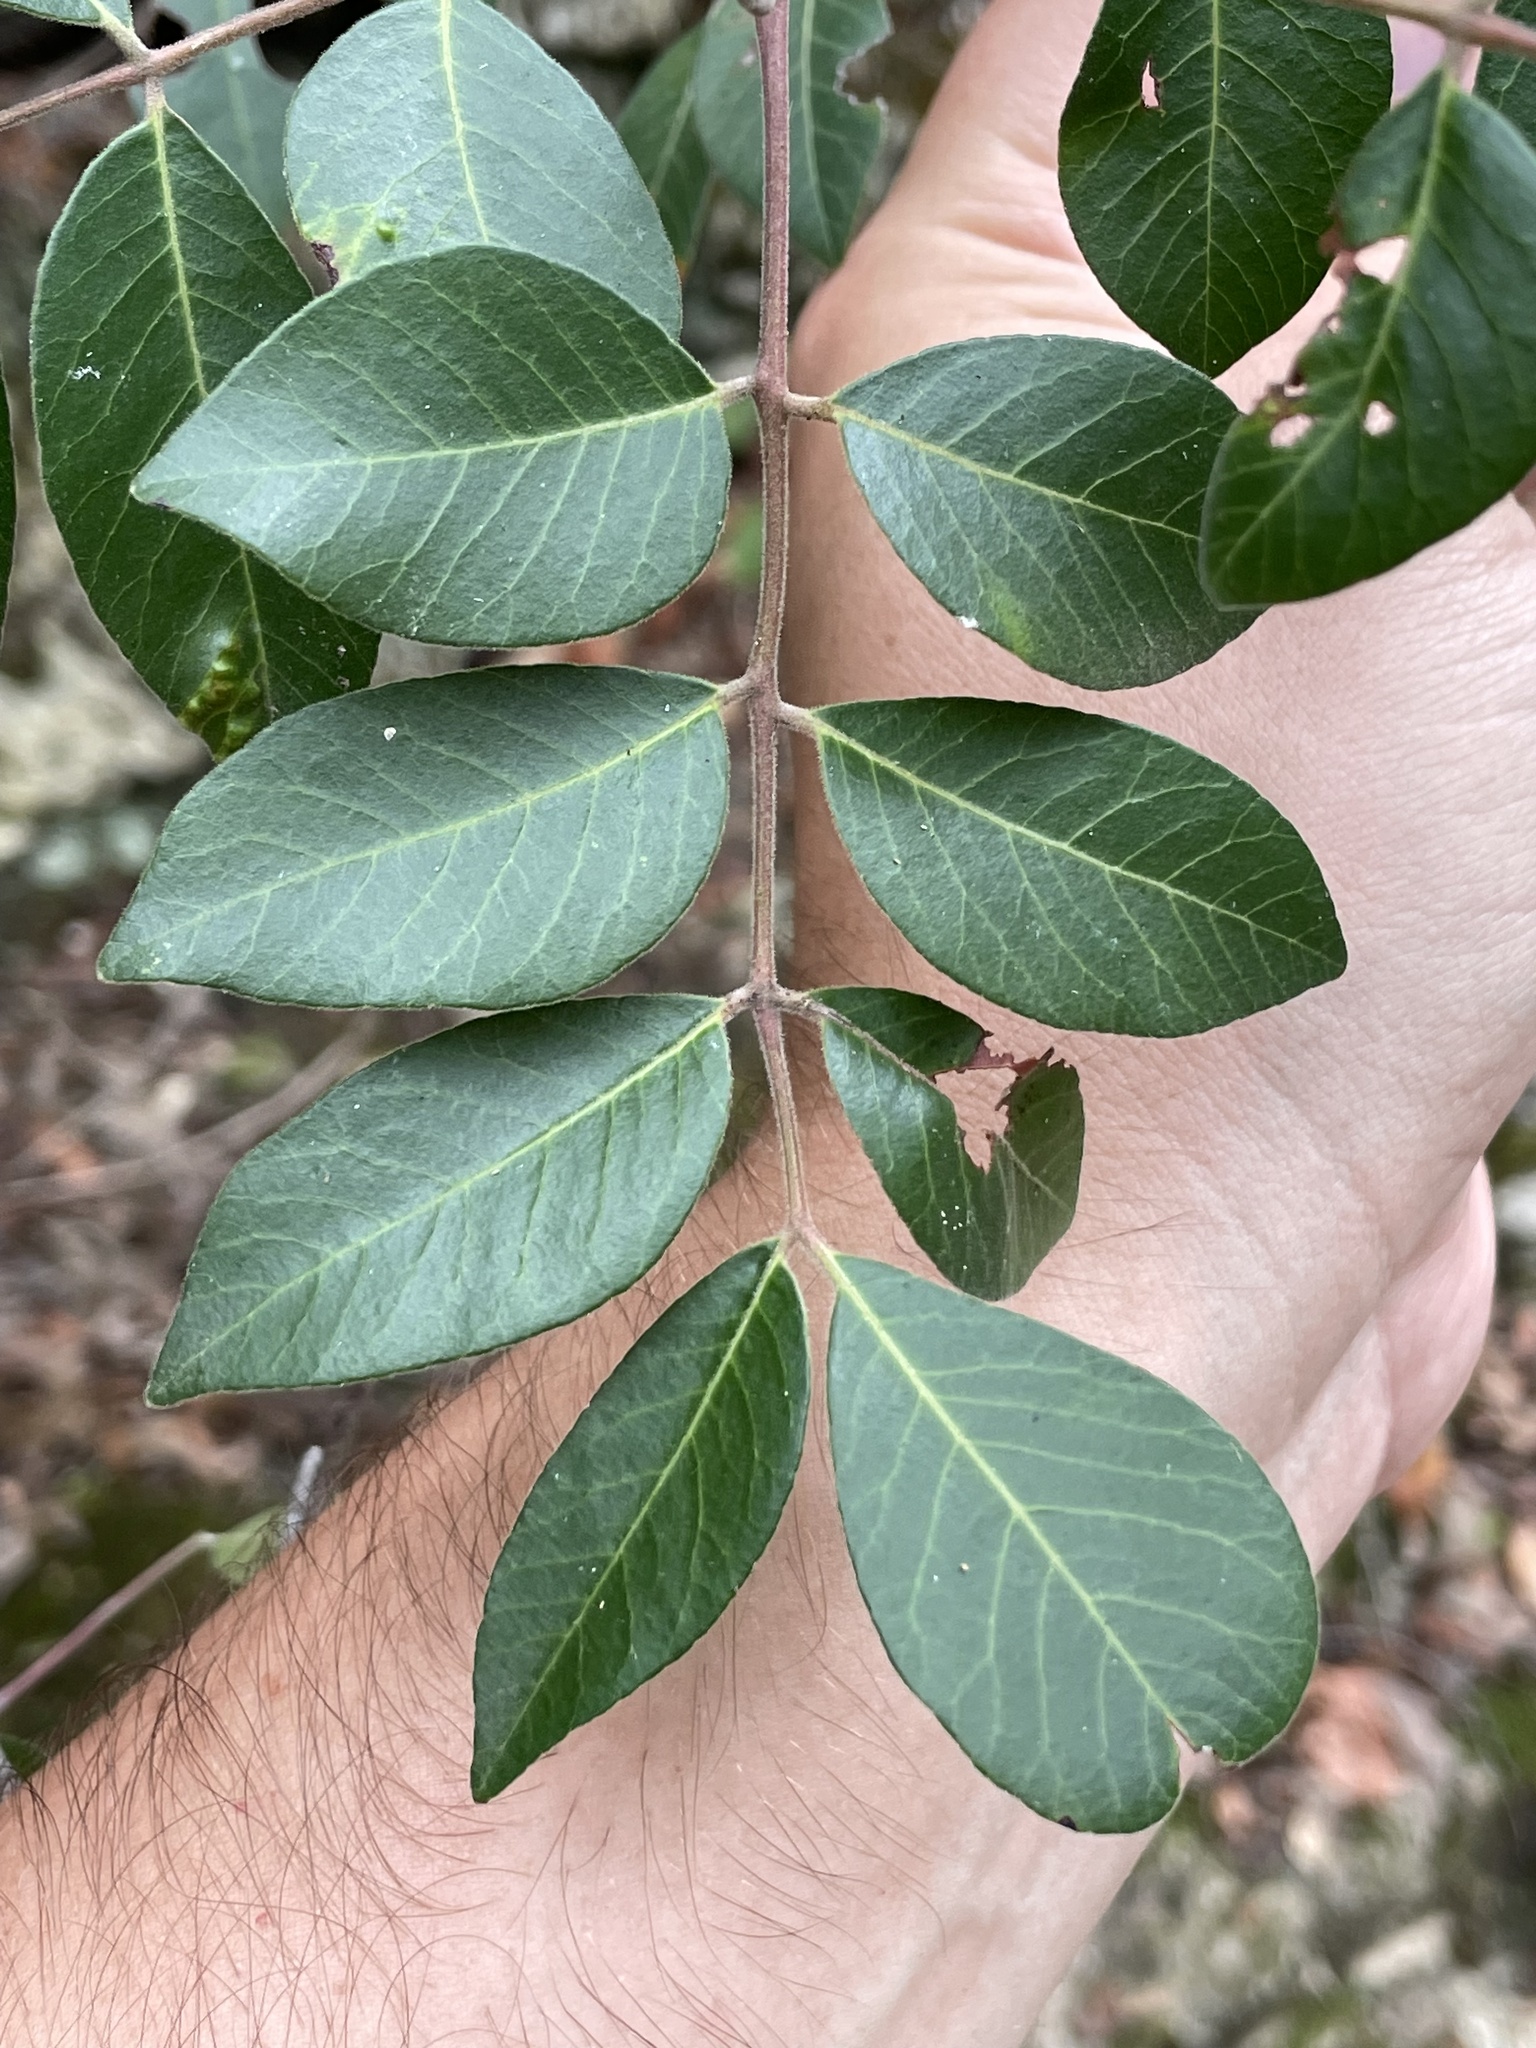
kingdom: Plantae
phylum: Tracheophyta
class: Magnoliopsida
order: Sapindales
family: Anacardiaceae
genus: Rhus
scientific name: Rhus virens
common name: Evergreen sumac
